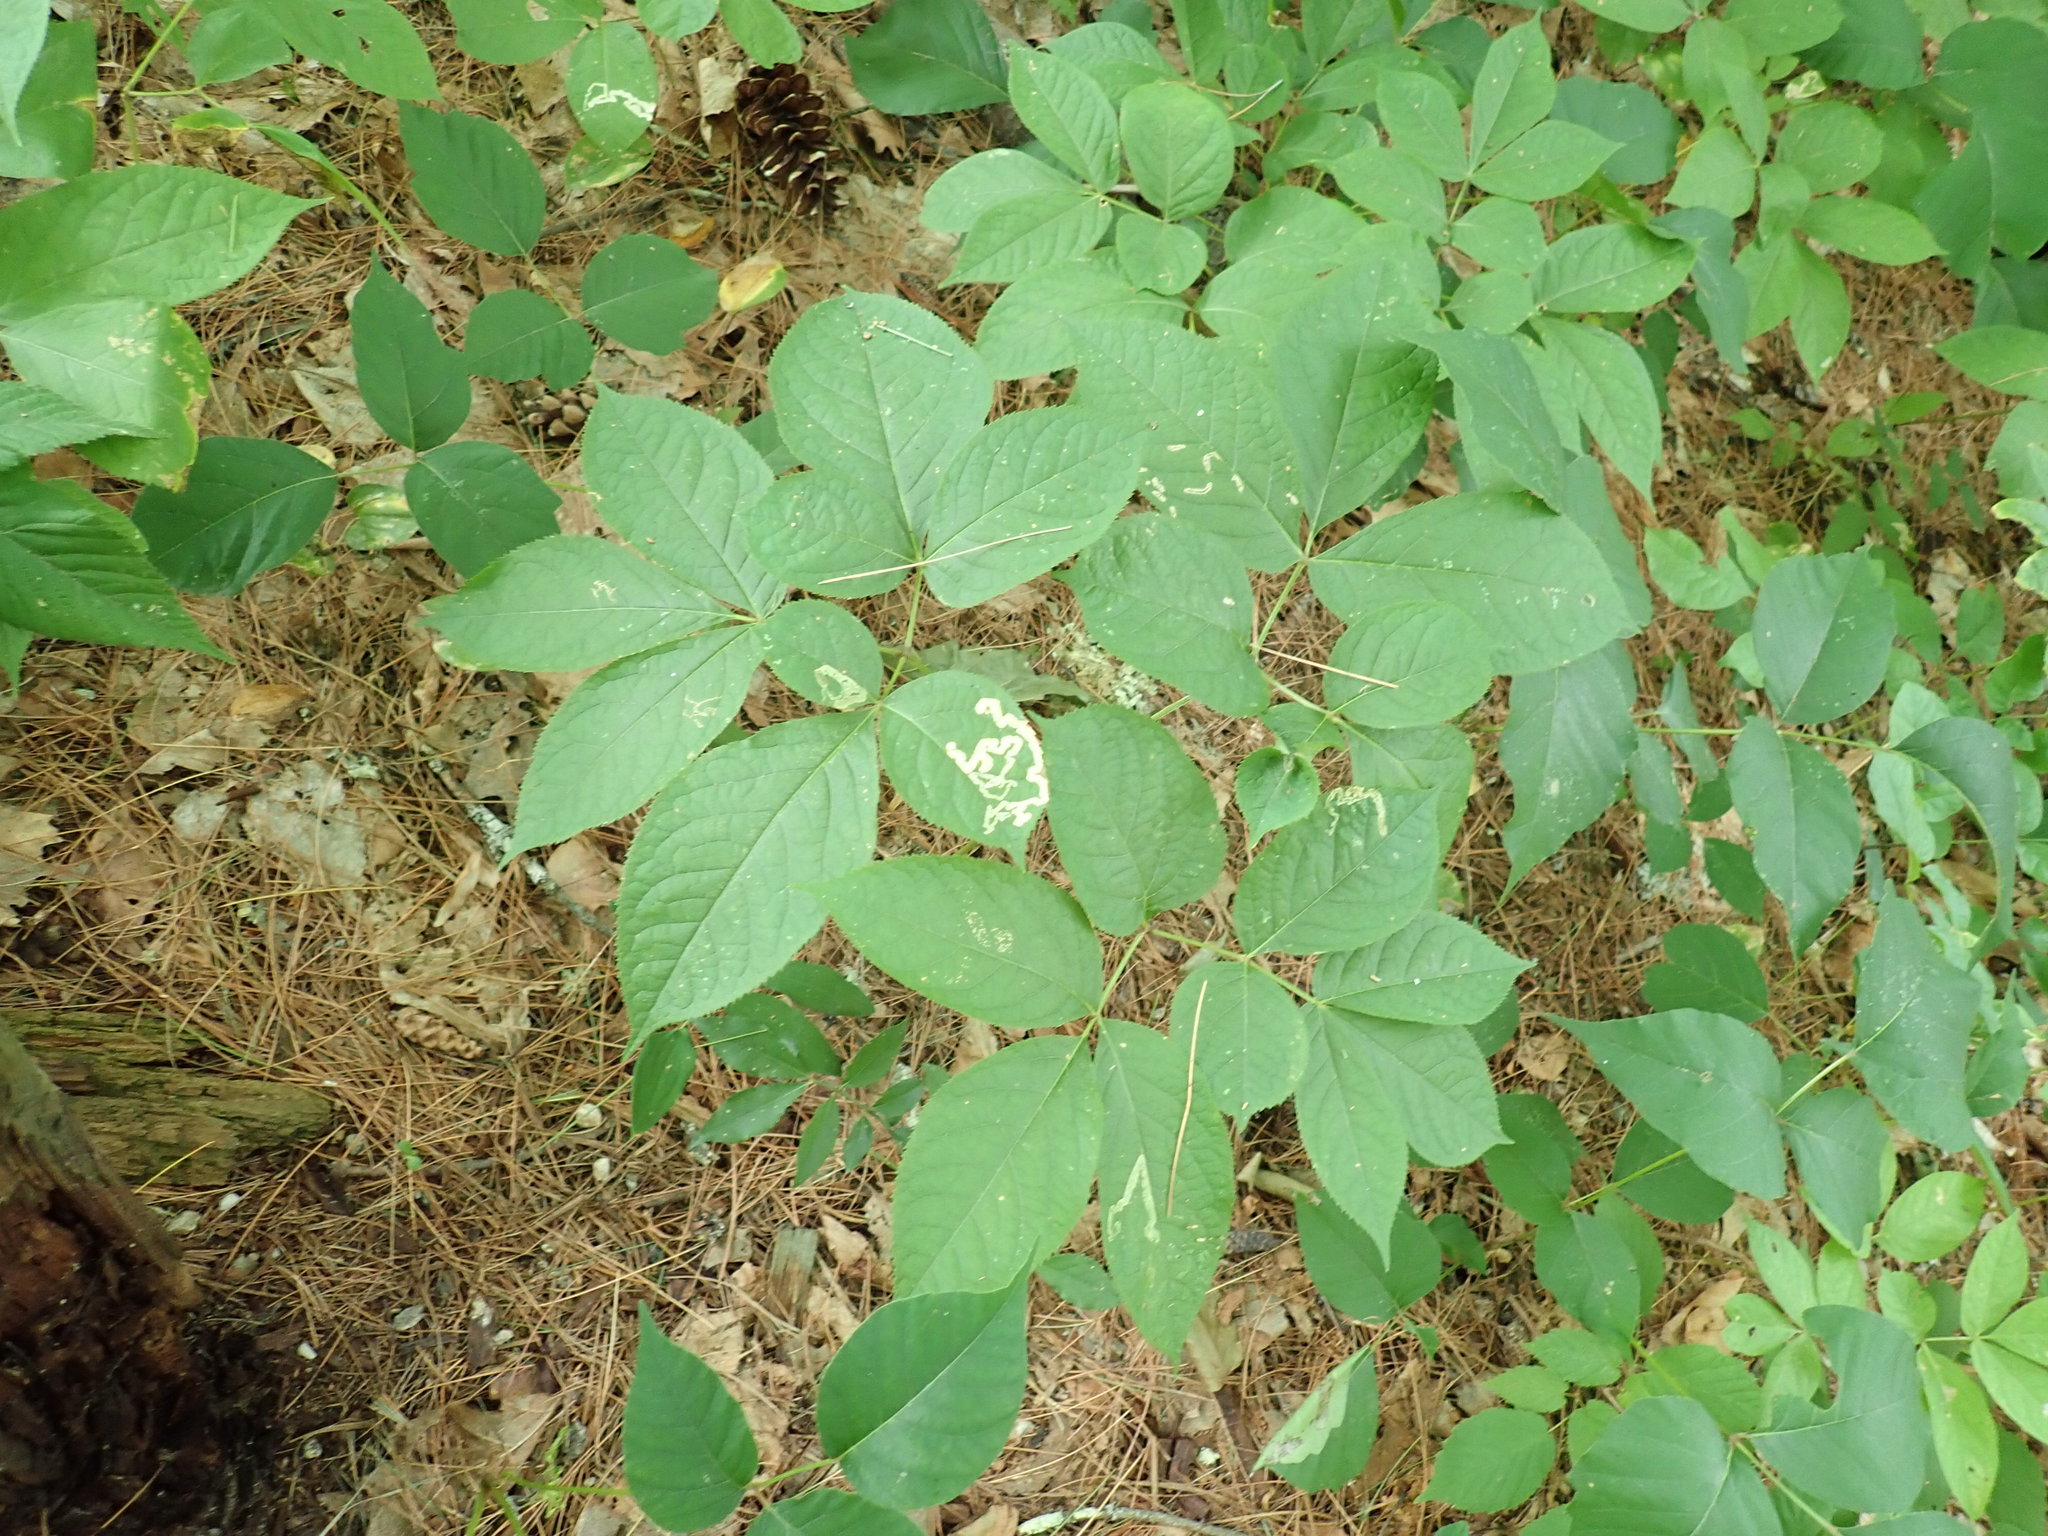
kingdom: Plantae
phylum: Tracheophyta
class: Magnoliopsida
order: Apiales
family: Araliaceae
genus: Aralia
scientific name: Aralia nudicaulis
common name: Wild sarsaparilla
